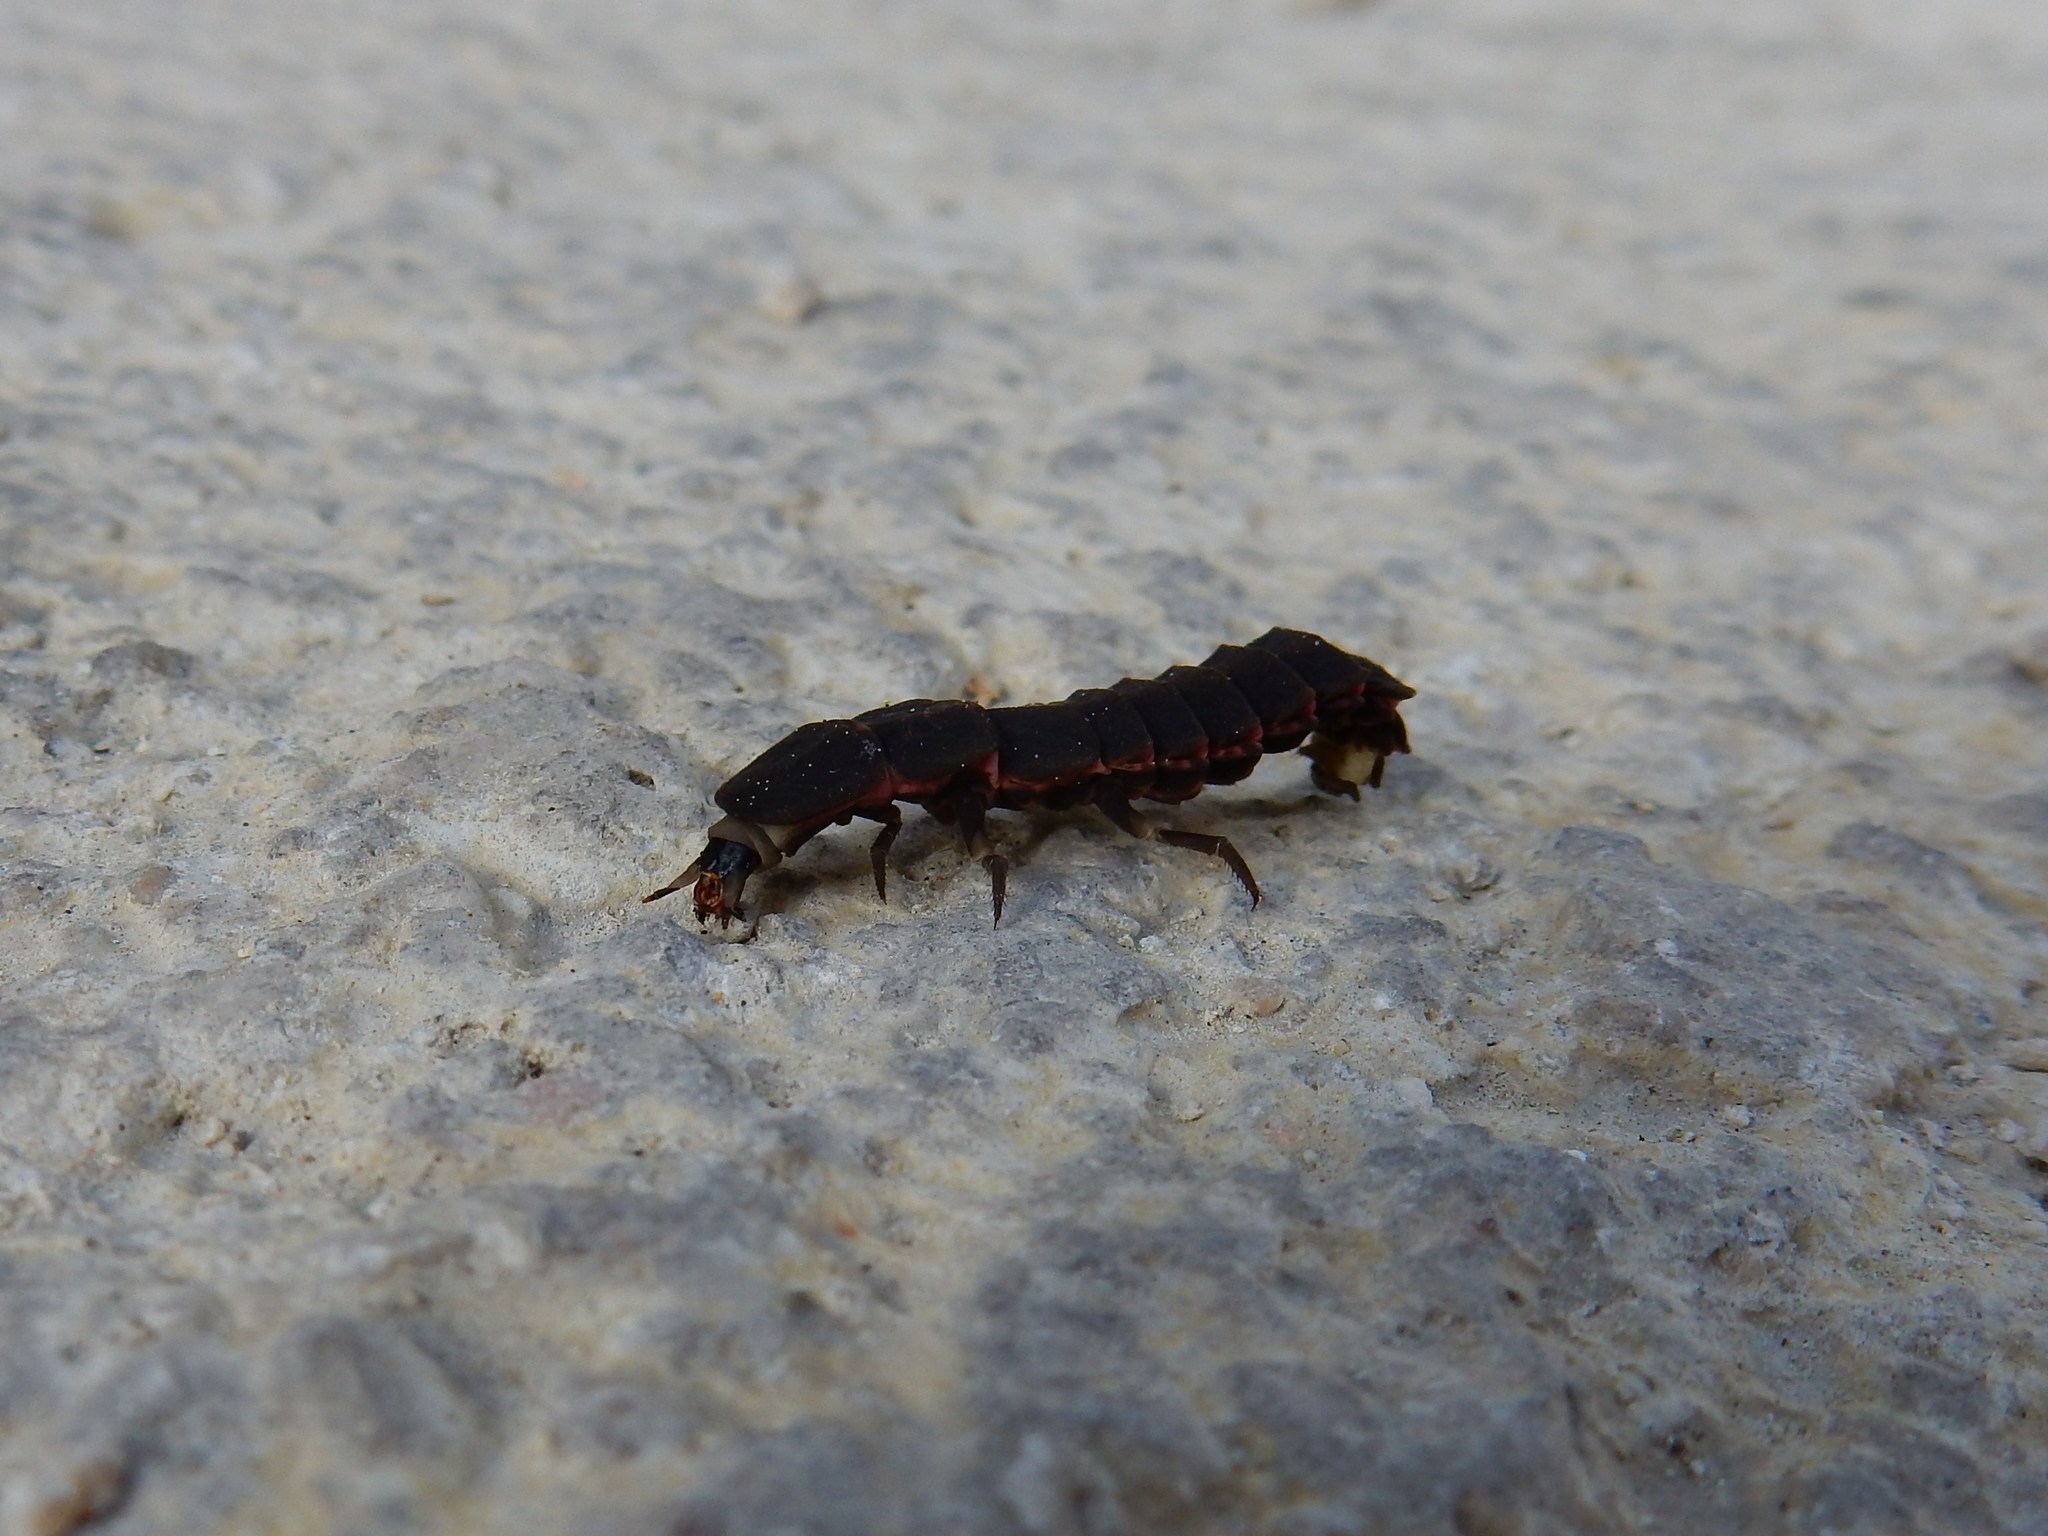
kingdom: Animalia
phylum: Arthropoda
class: Insecta
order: Coleoptera
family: Lampyridae
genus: Nyctophila
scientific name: Nyctophila reichii
